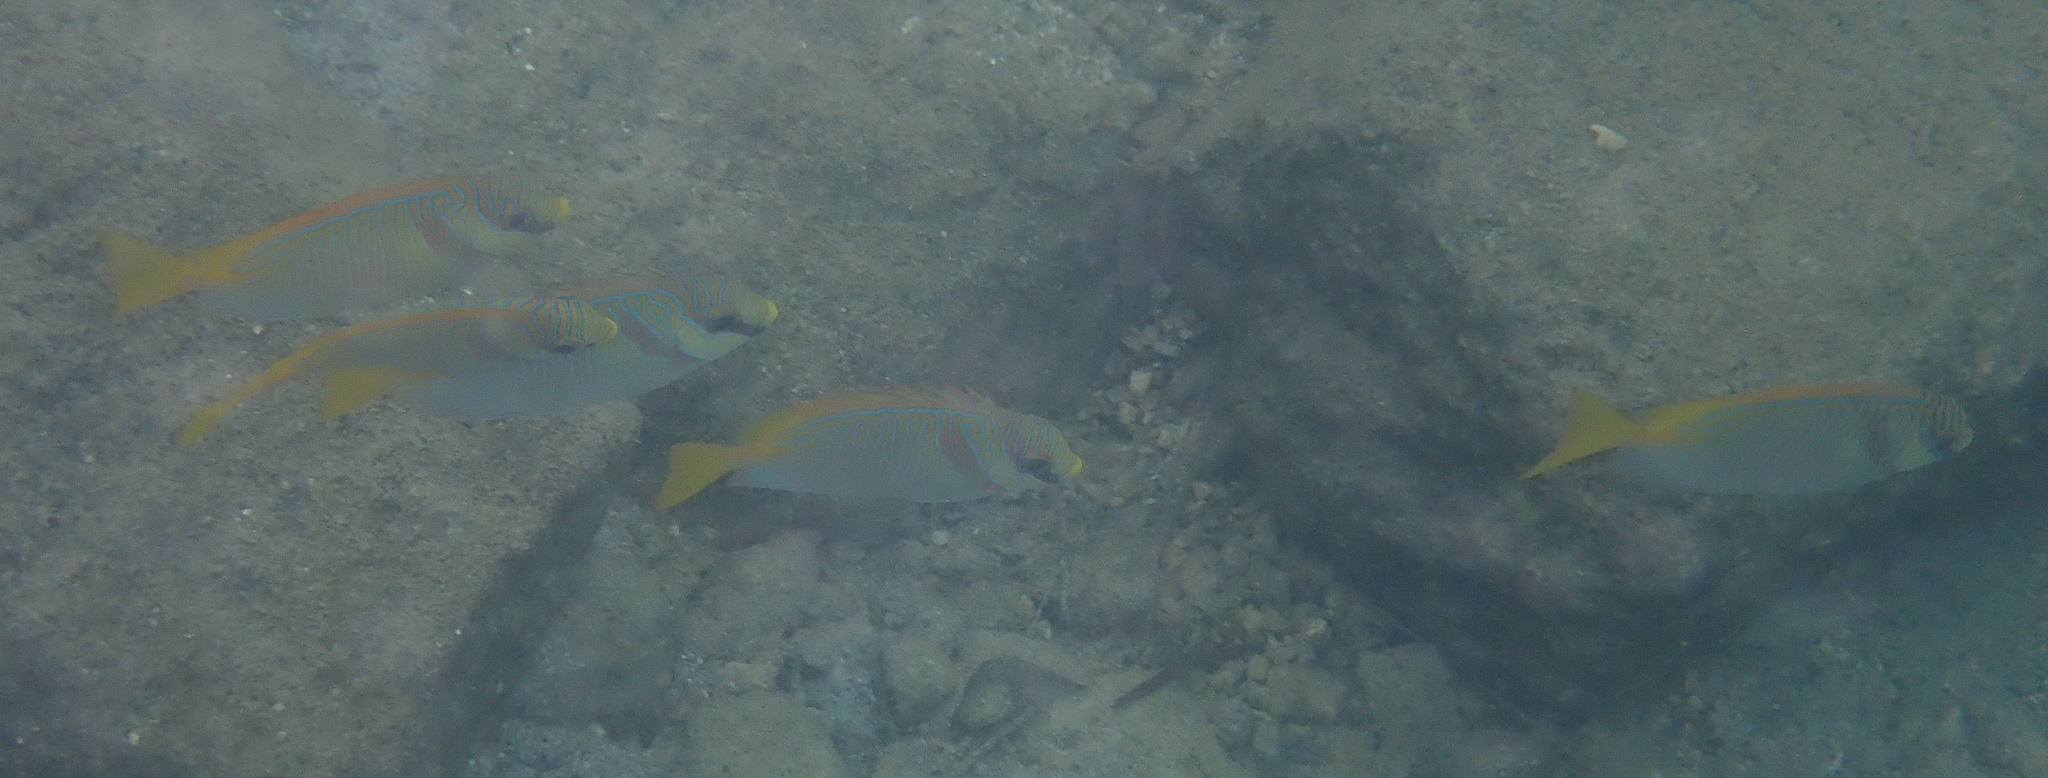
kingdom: Animalia
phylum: Chordata
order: Perciformes
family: Siganidae
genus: Siganus
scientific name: Siganus doliatus
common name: Barred spinefoot
